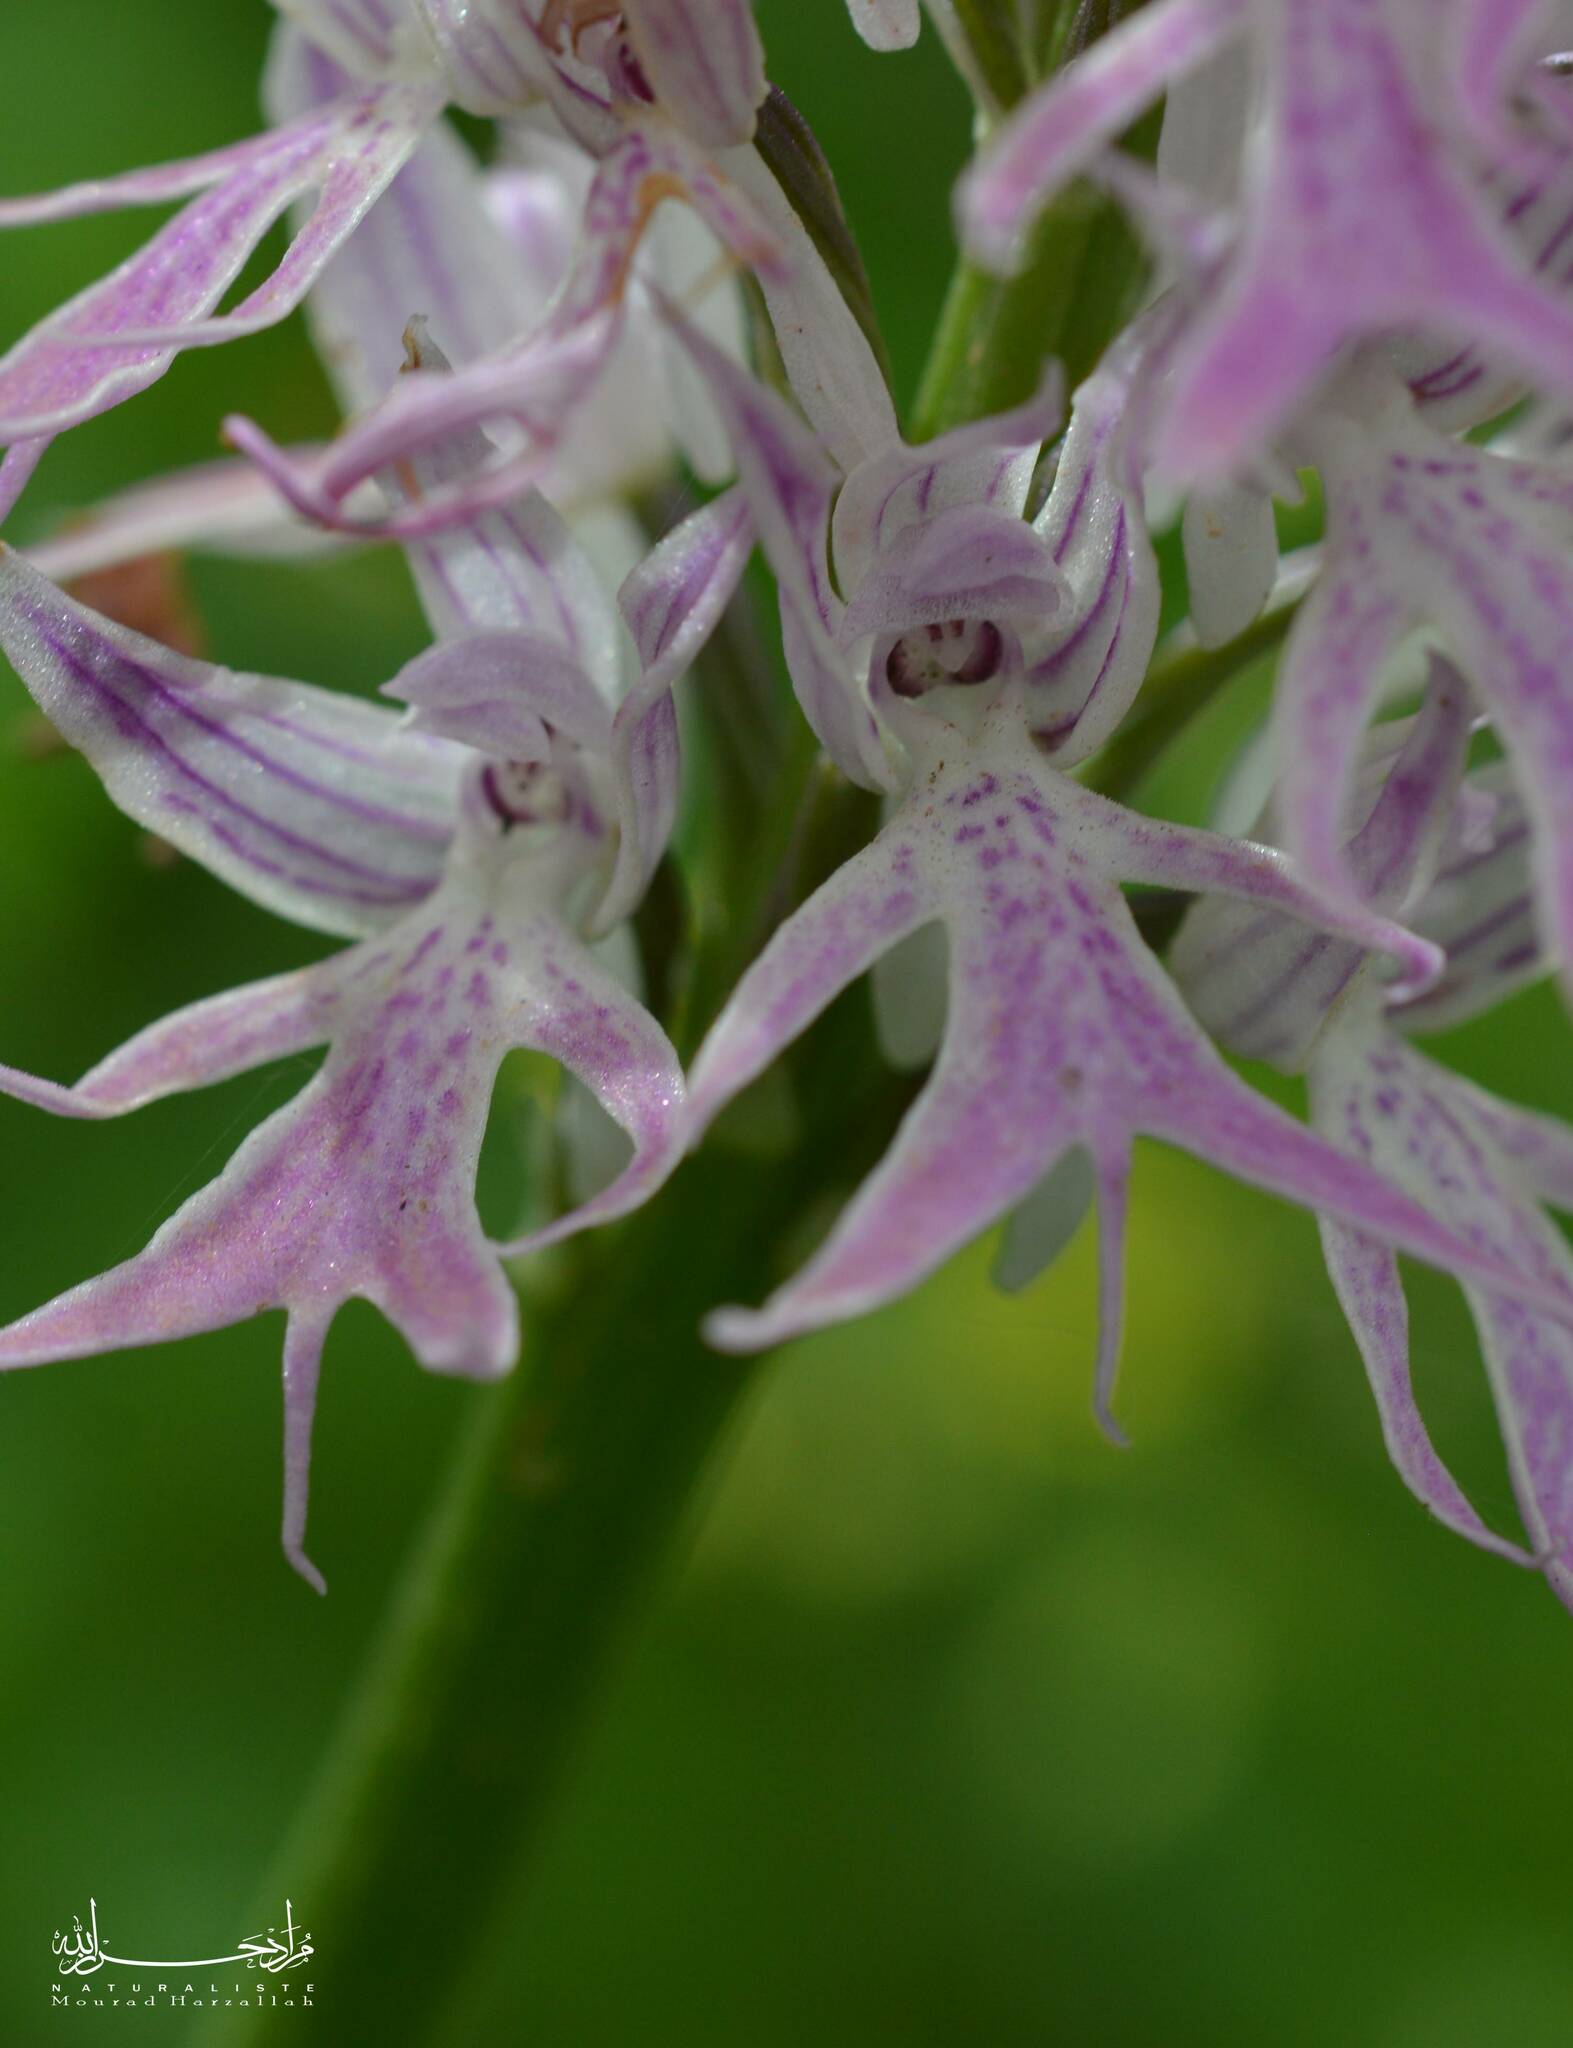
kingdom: Plantae
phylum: Tracheophyta
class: Liliopsida
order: Asparagales
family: Orchidaceae
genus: Orchis
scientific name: Orchis italica
